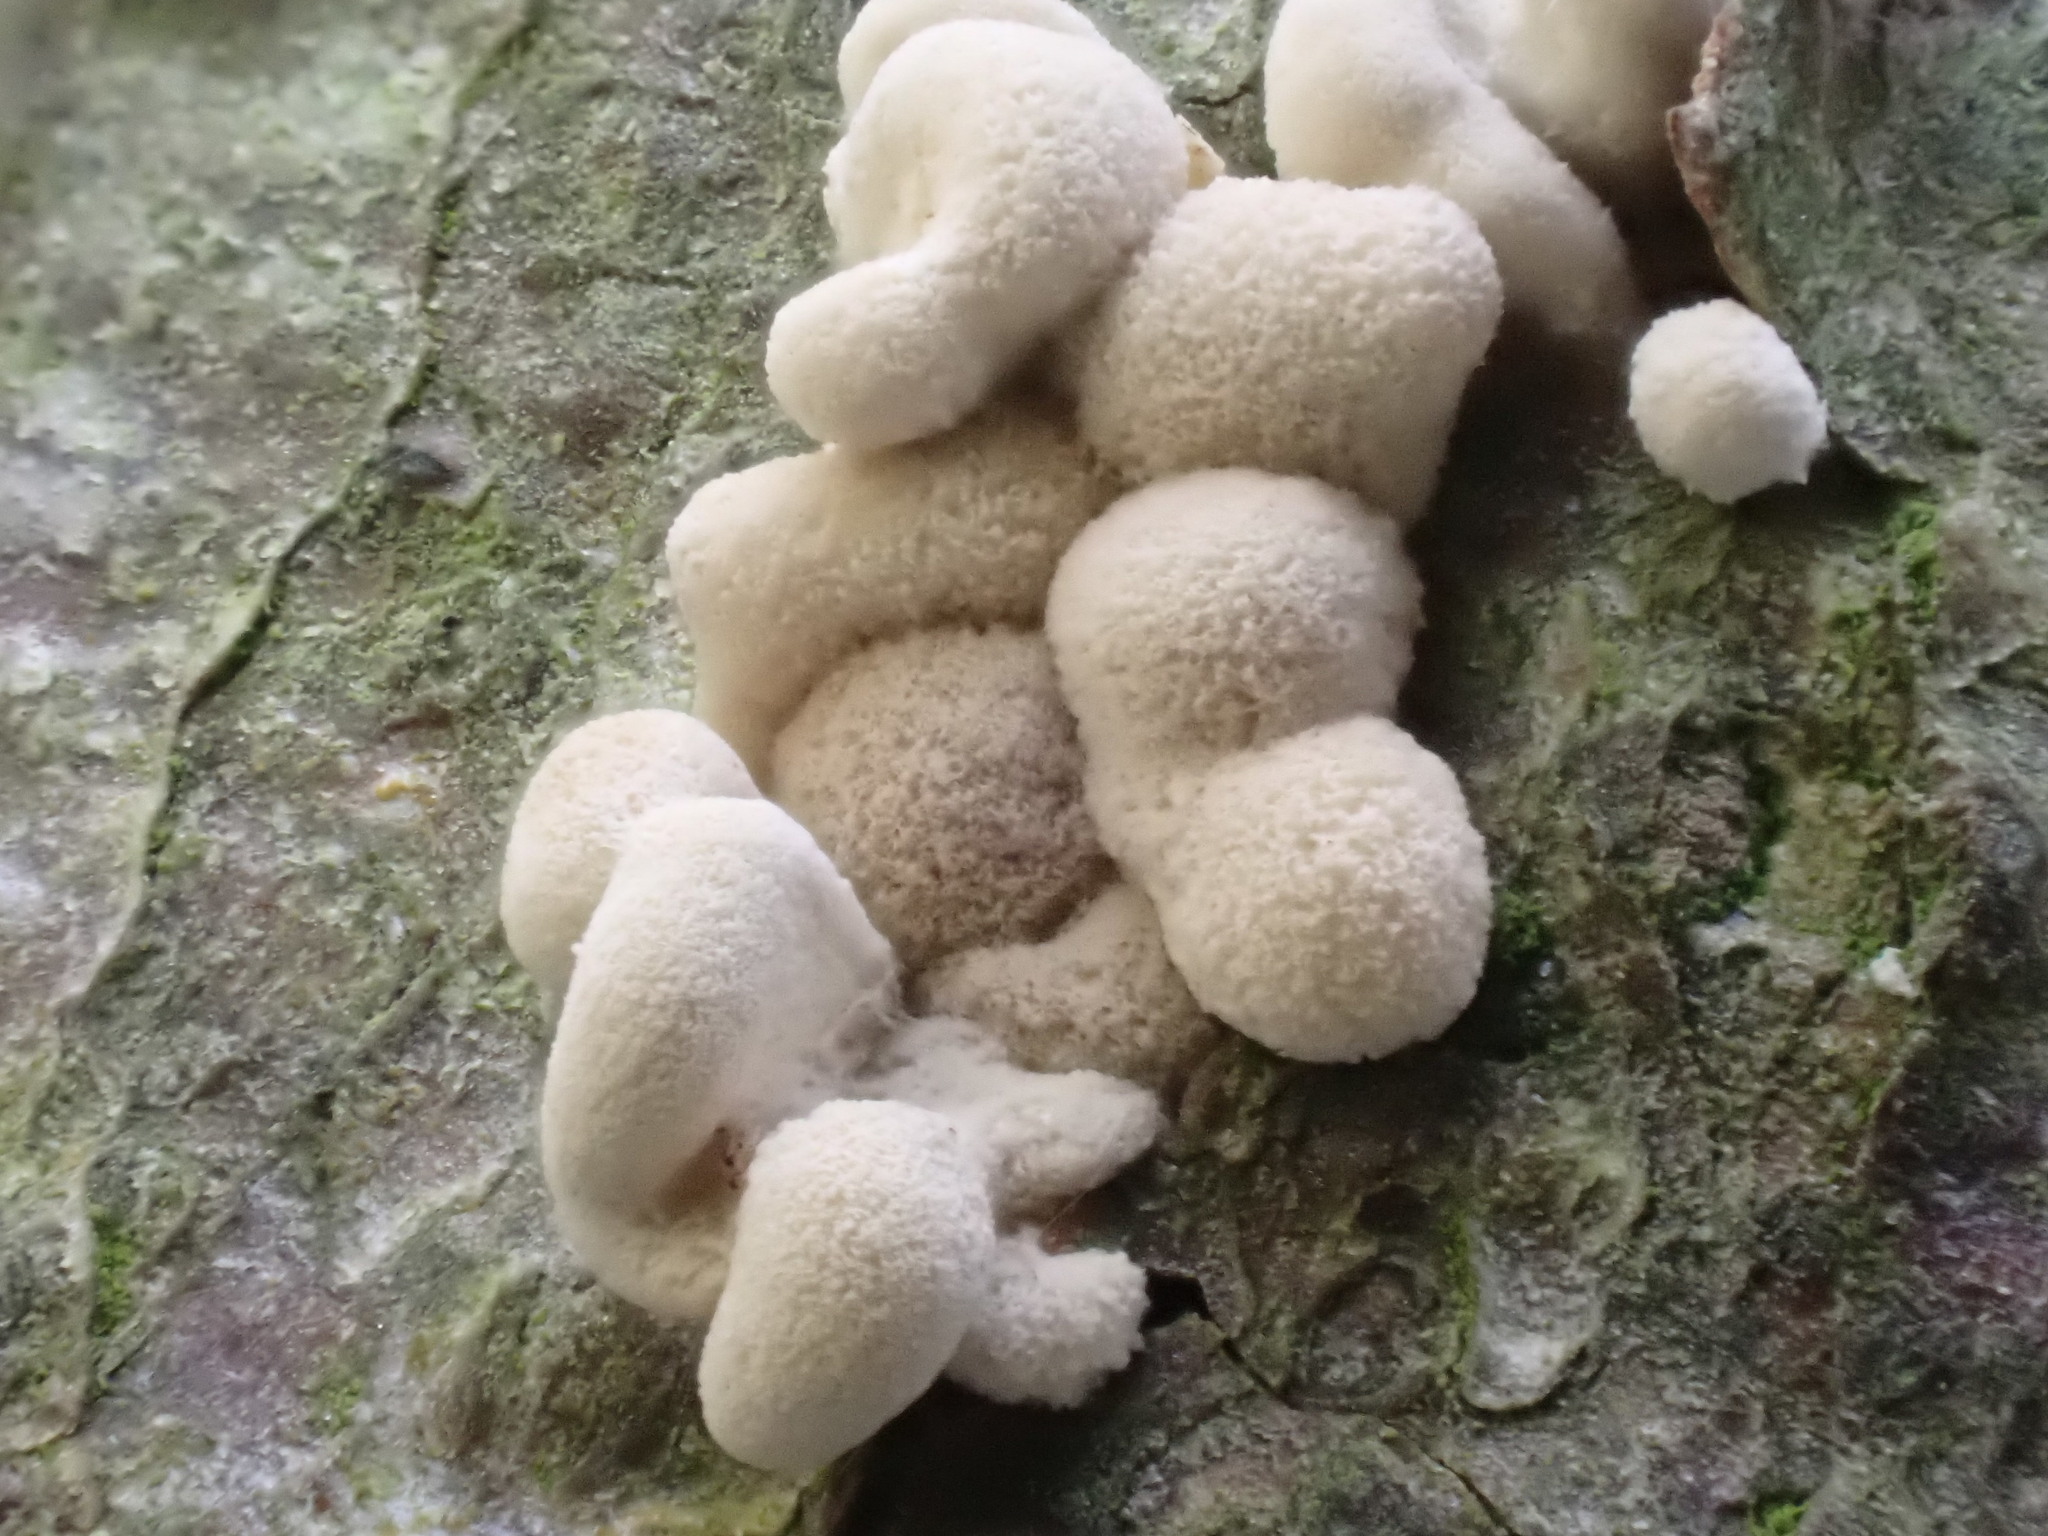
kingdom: Fungi
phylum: Basidiomycota
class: Atractiellomycetes
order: Atractiellales
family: Phleogenaceae
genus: Phleogena
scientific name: Phleogena faginea
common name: Fenugreek stalkball
